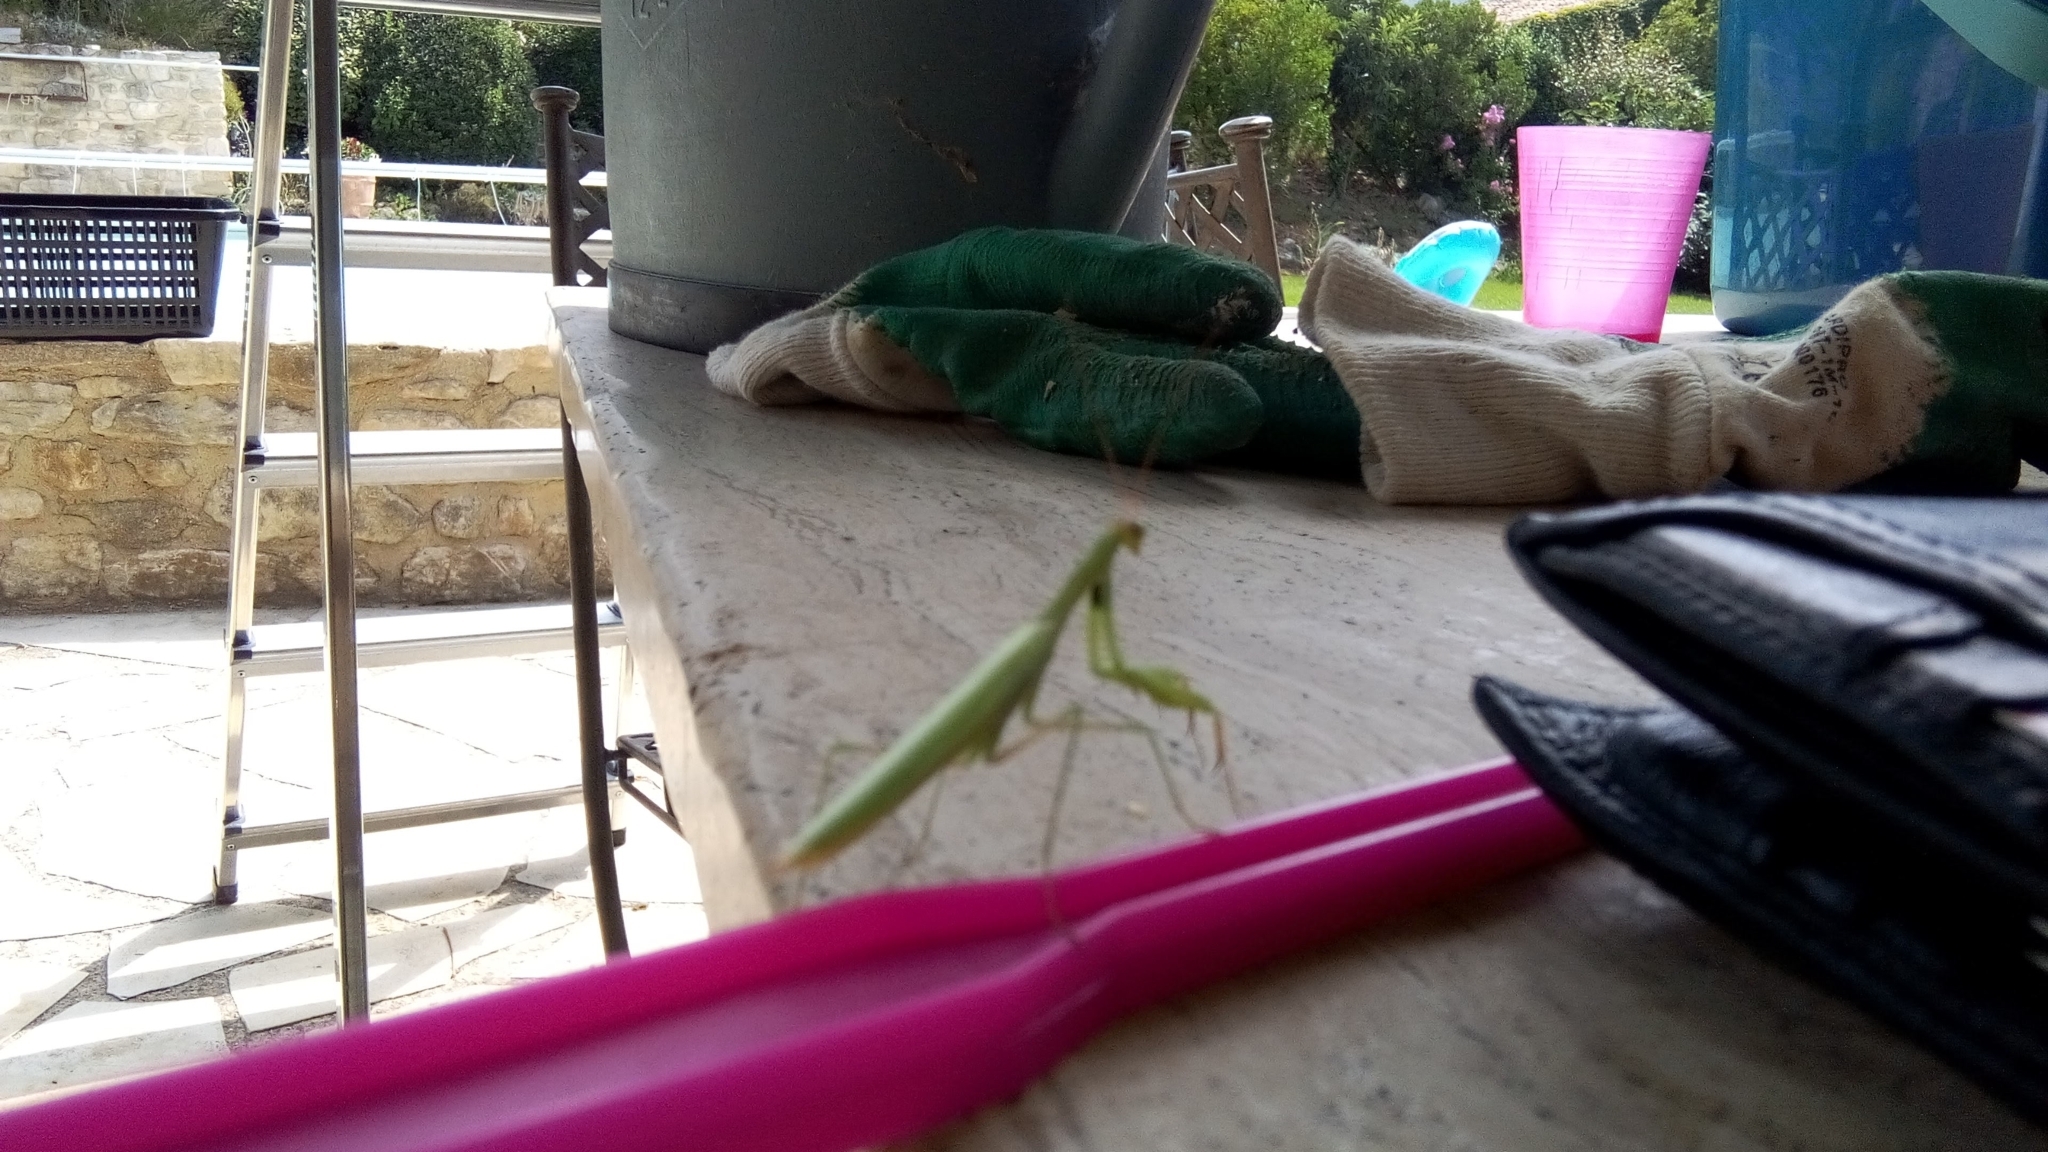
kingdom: Animalia
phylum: Arthropoda
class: Insecta
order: Mantodea
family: Mantidae
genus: Mantis
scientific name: Mantis religiosa
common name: Praying mantis
